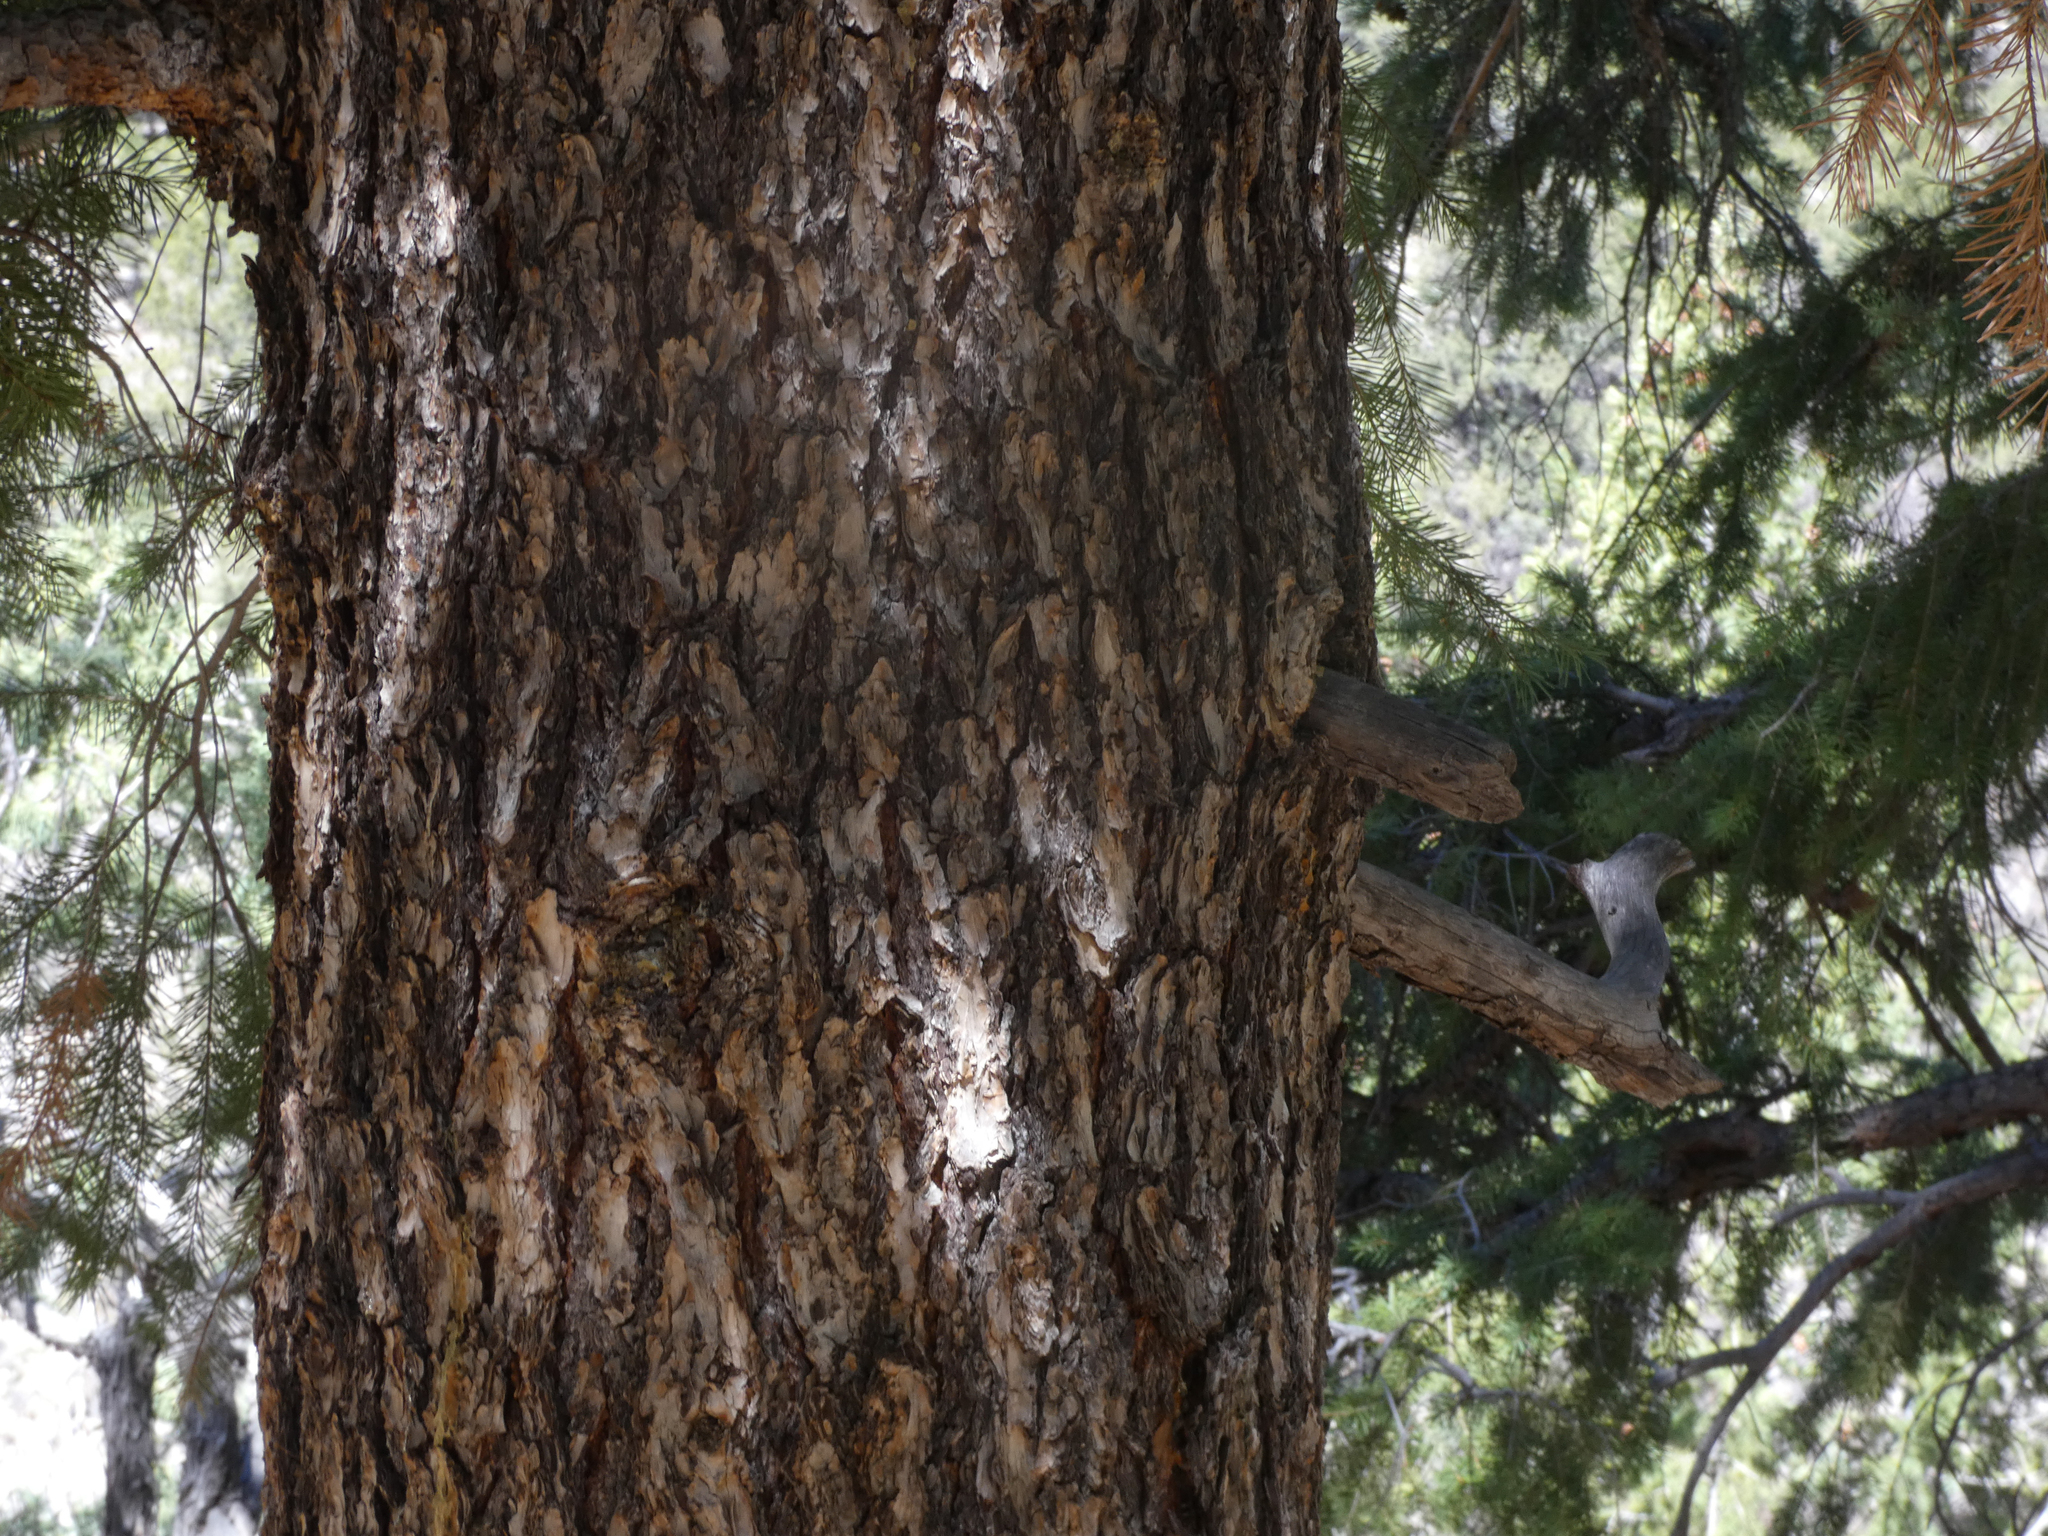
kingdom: Plantae
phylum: Tracheophyta
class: Pinopsida
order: Pinales
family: Pinaceae
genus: Pseudotsuga
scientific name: Pseudotsuga menziesii
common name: Douglas fir
